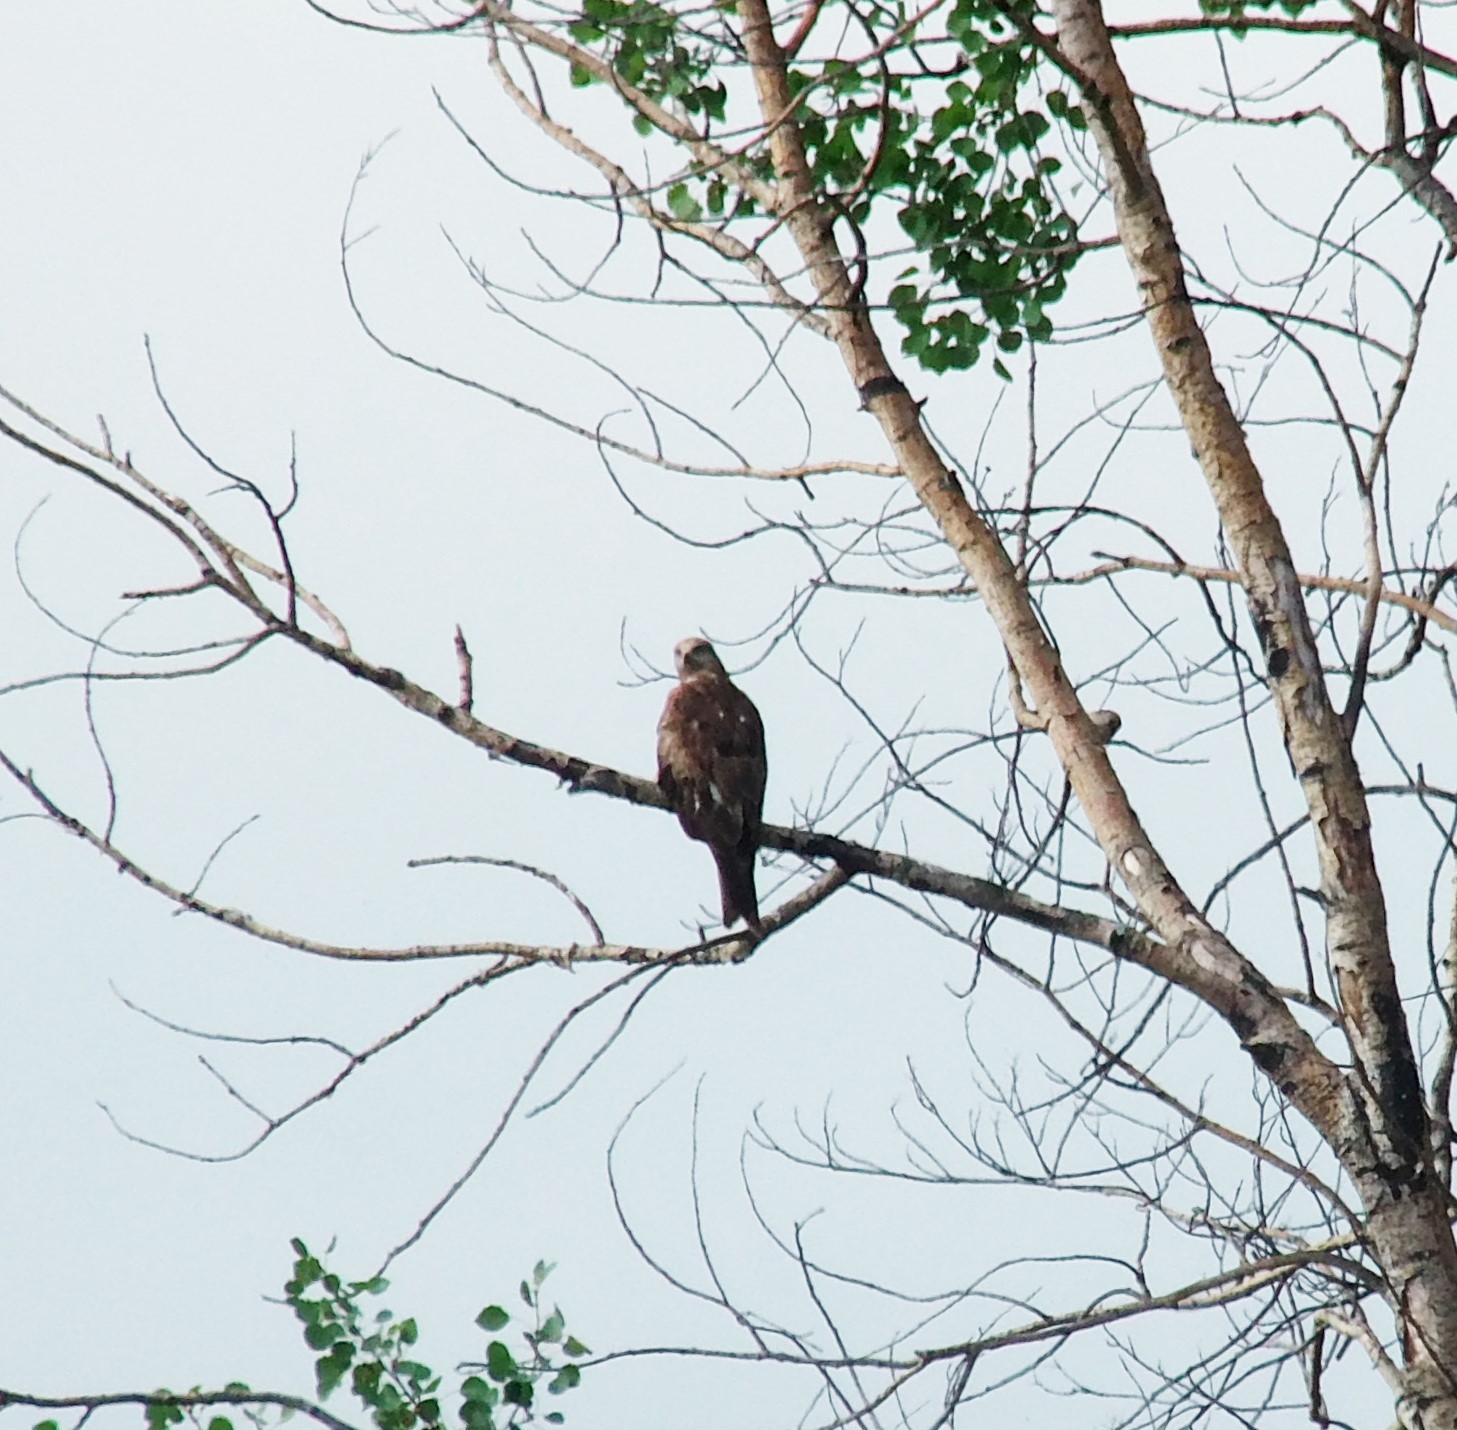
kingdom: Animalia
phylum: Chordata
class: Aves
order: Accipitriformes
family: Accipitridae
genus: Milvus
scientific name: Milvus migrans
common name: Black kite
